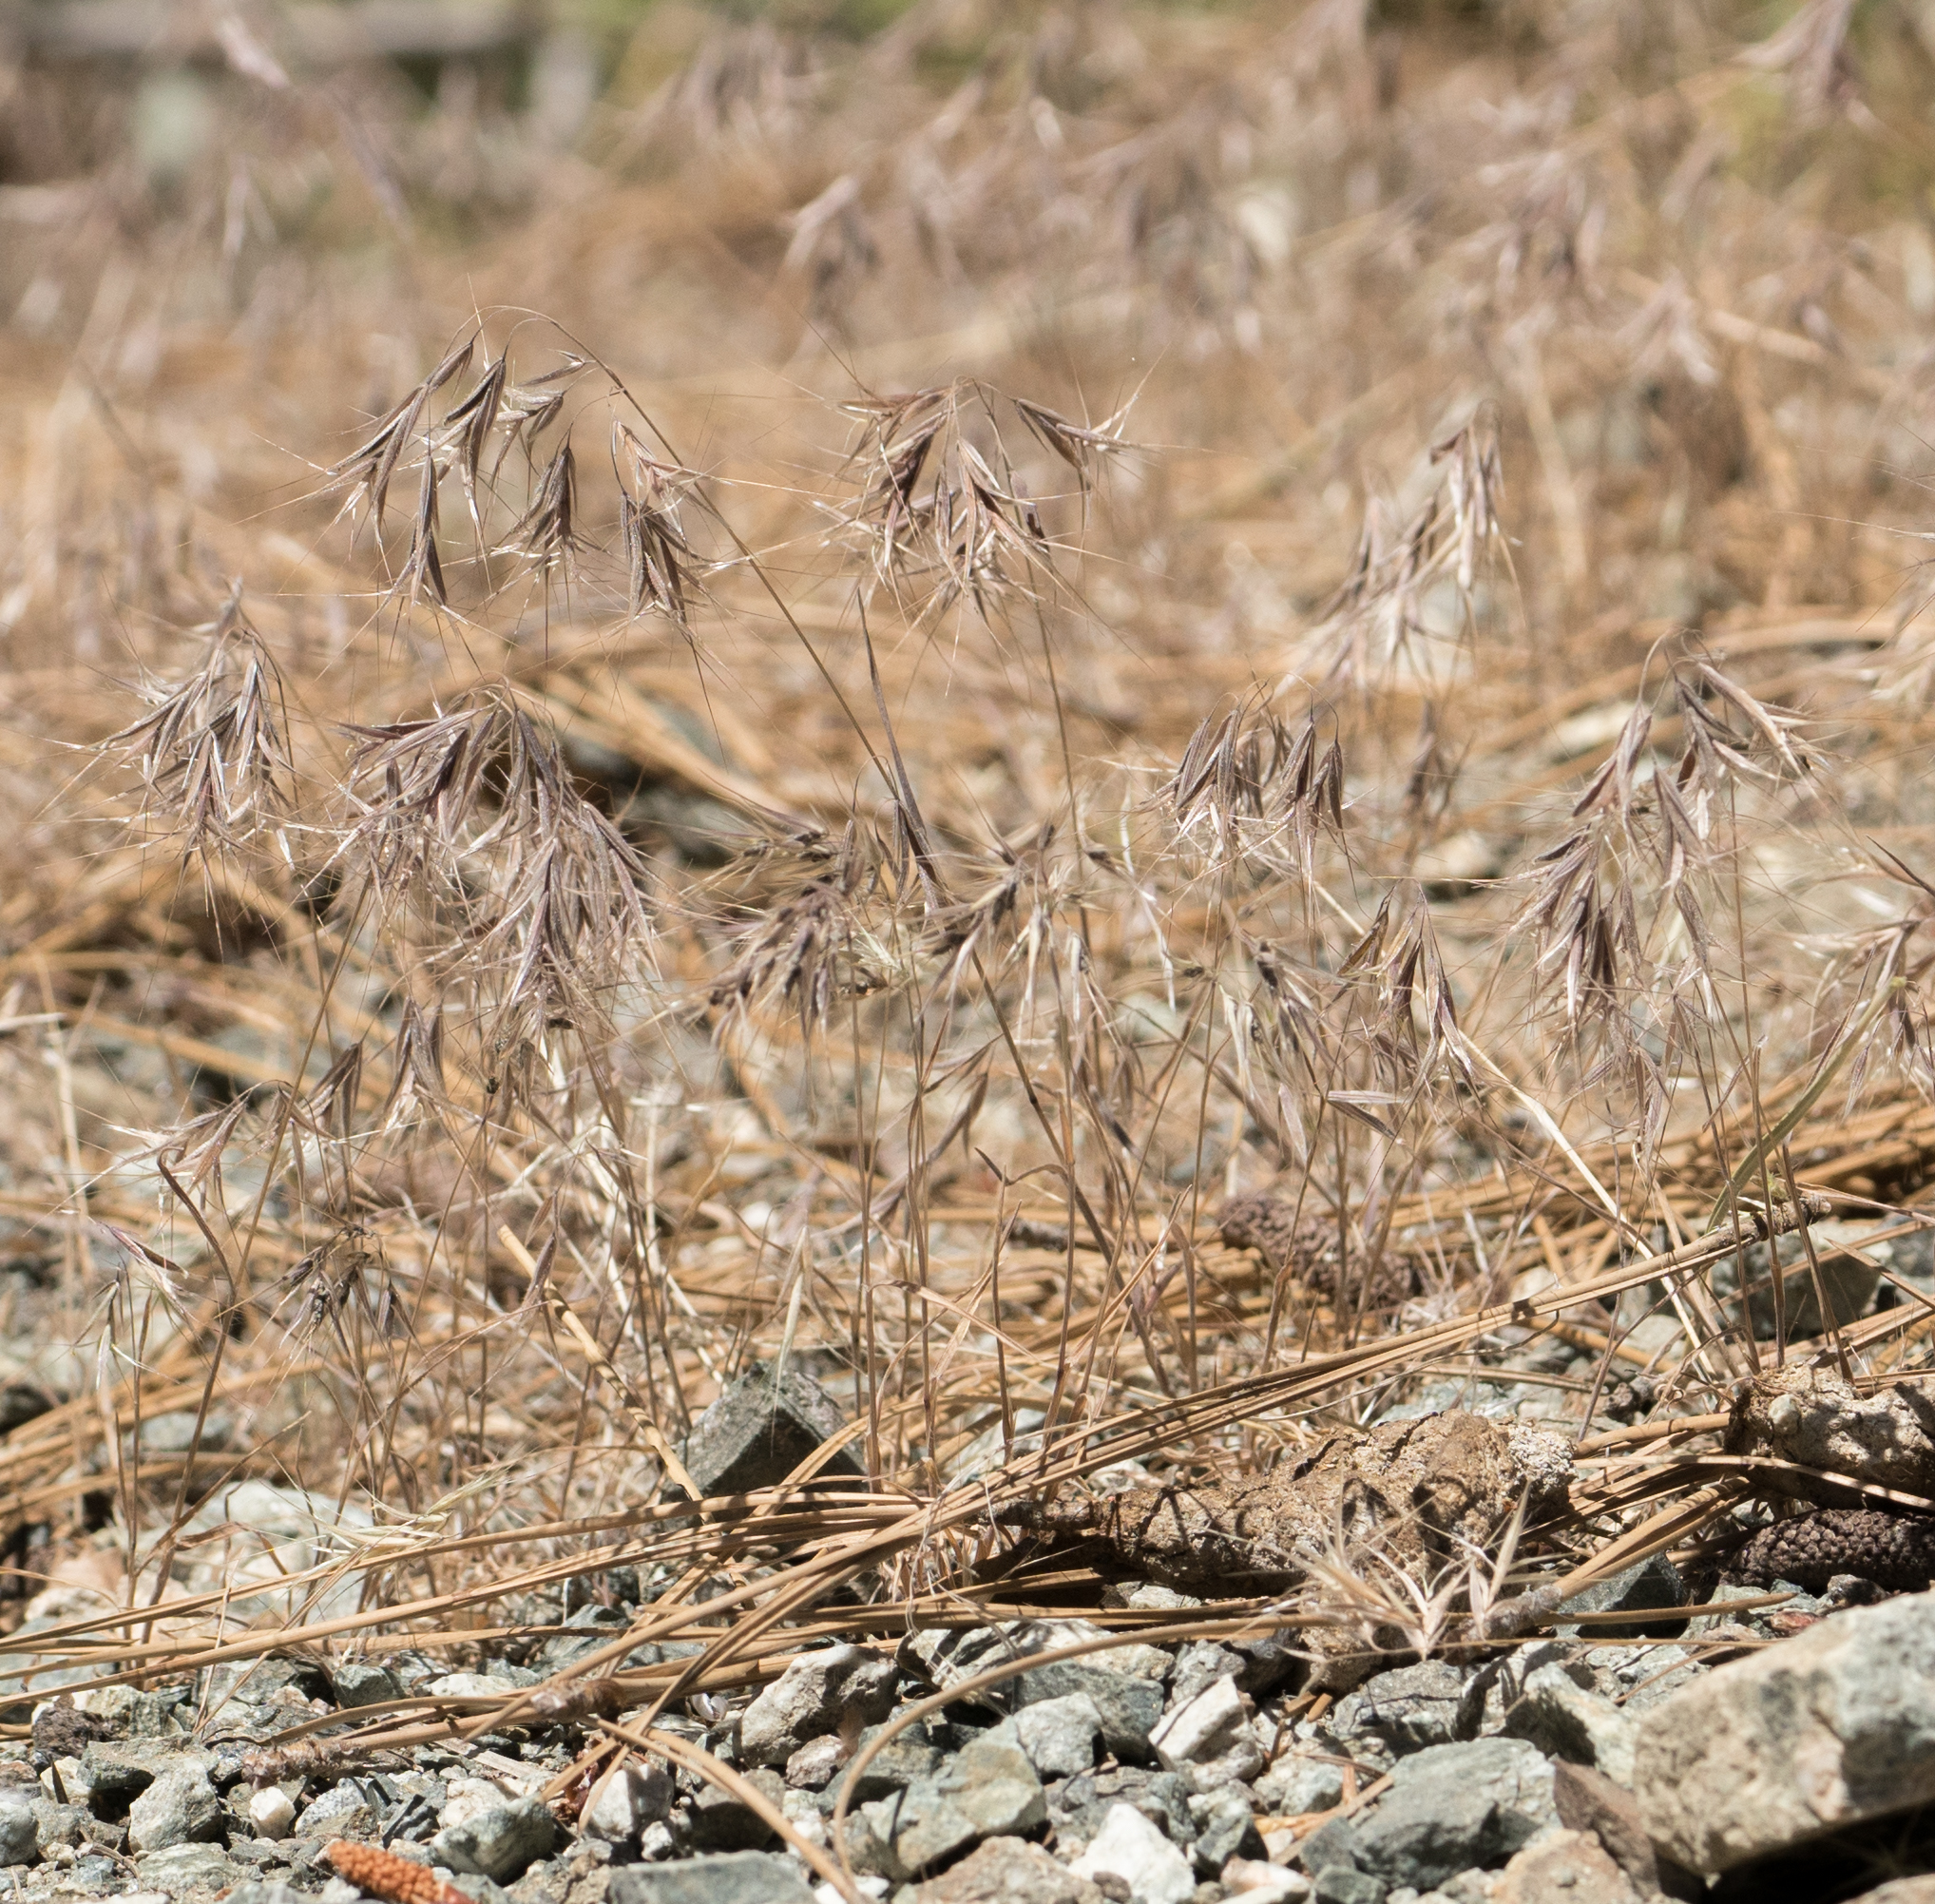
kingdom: Plantae
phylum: Tracheophyta
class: Liliopsida
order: Poales
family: Poaceae
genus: Bromus
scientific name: Bromus tectorum
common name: Cheatgrass
